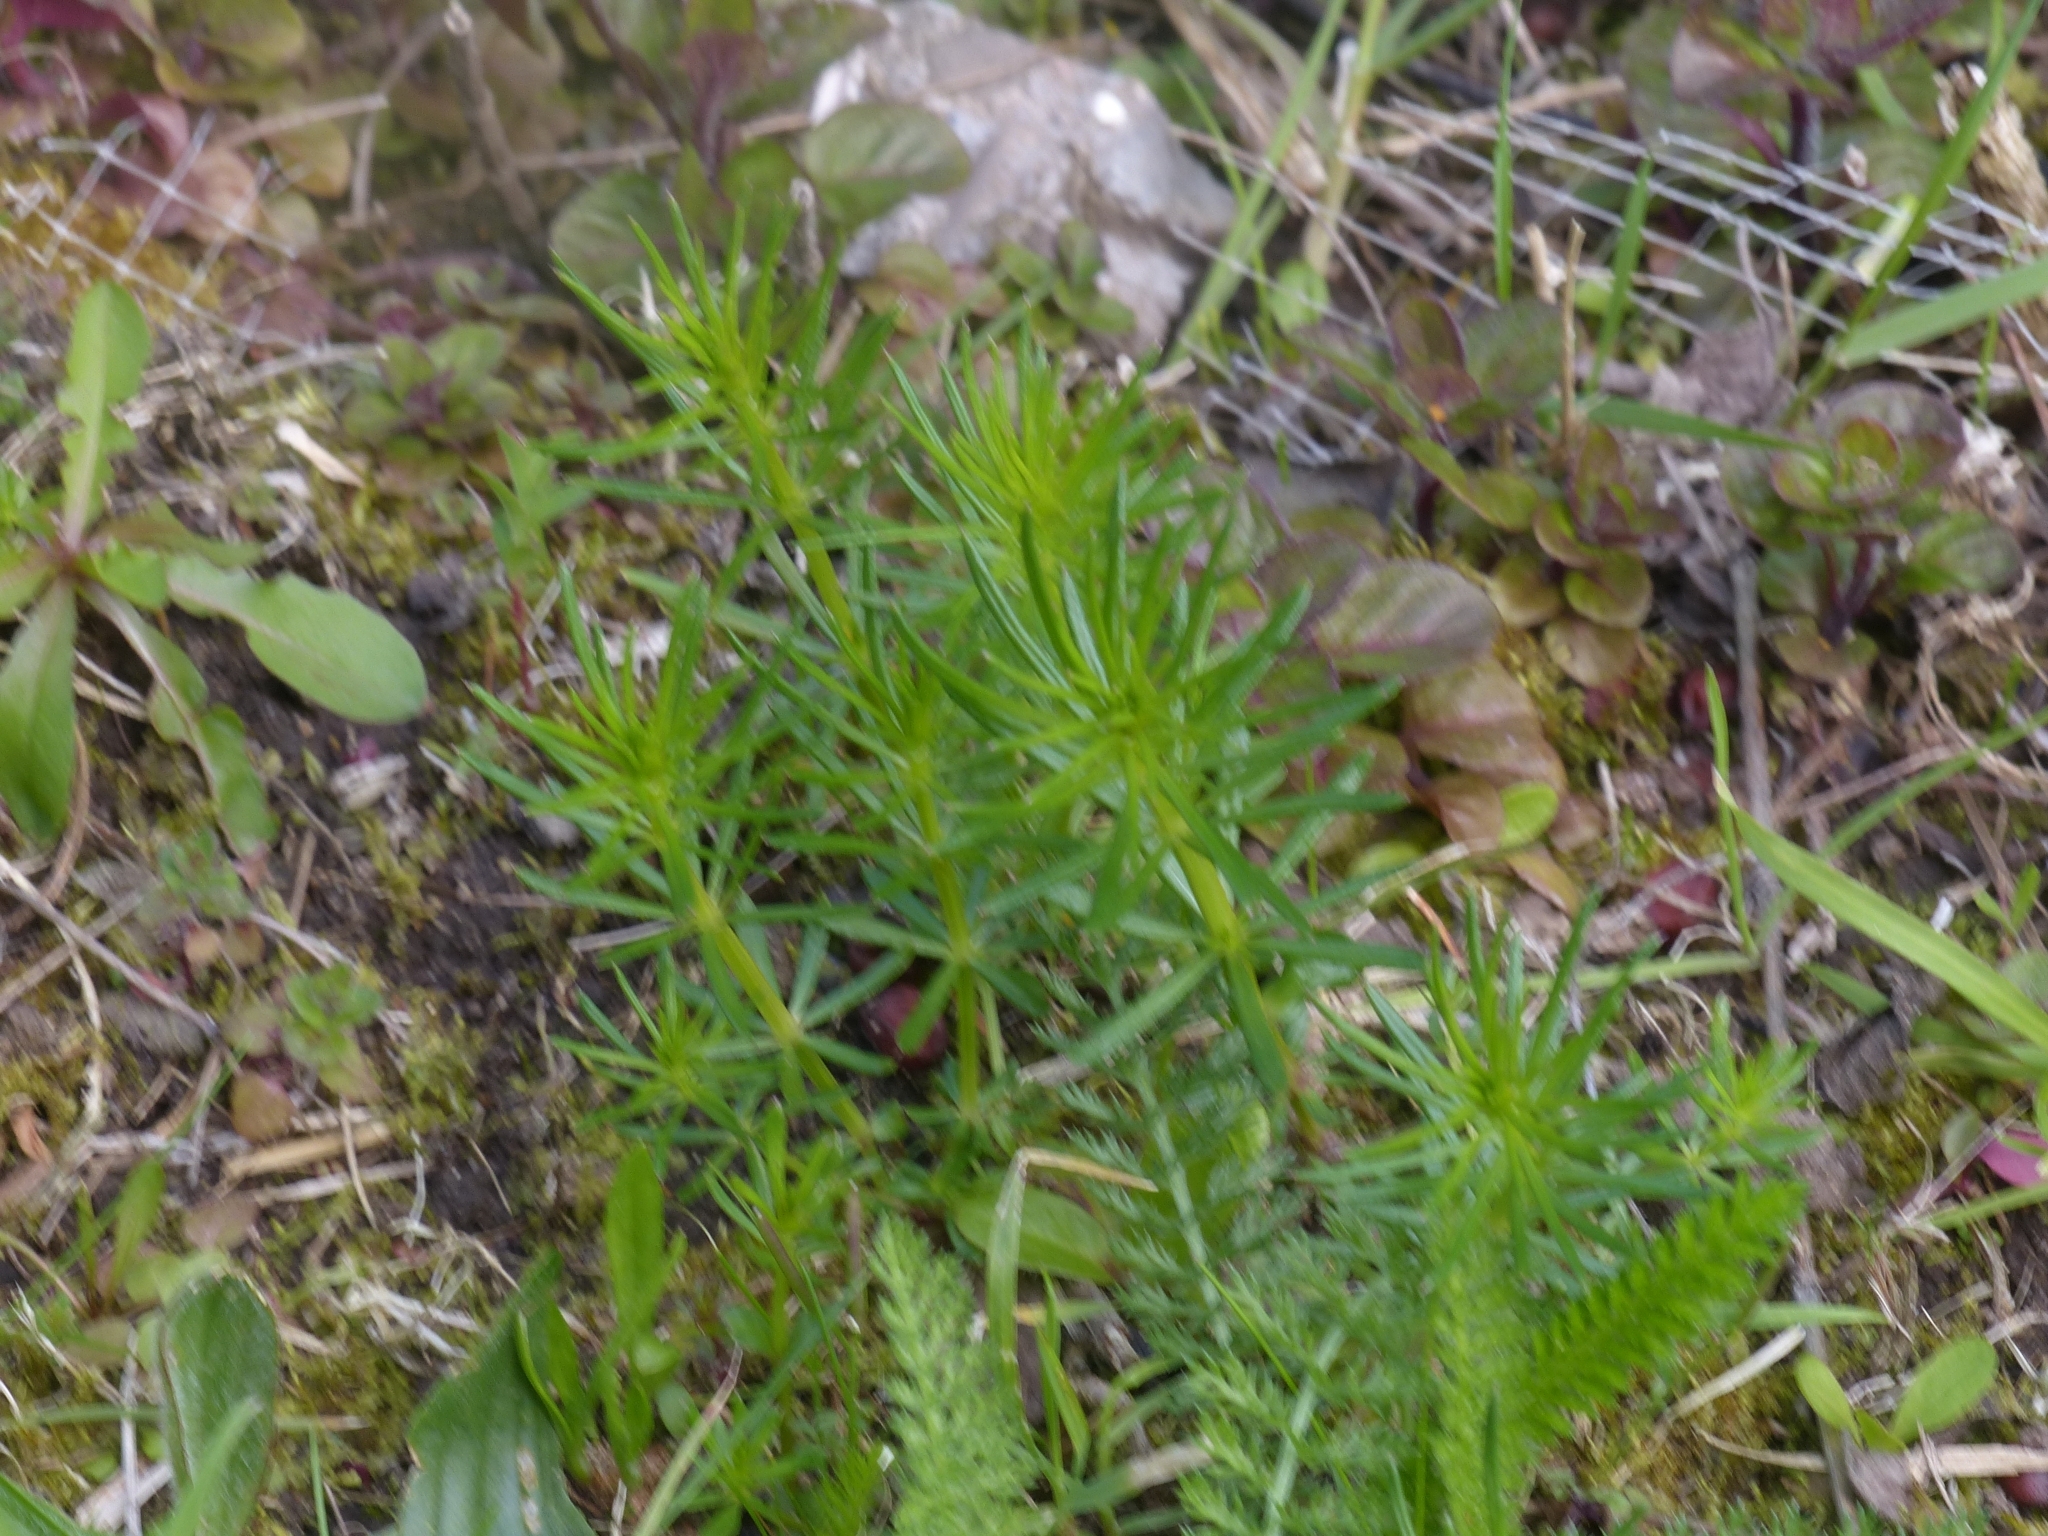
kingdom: Plantae
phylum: Tracheophyta
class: Magnoliopsida
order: Gentianales
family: Rubiaceae
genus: Galium
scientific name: Galium verum
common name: Lady's bedstraw
